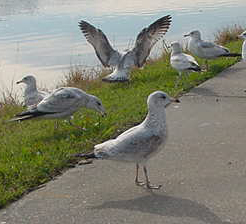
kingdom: Animalia
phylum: Chordata
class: Aves
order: Charadriiformes
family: Laridae
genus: Larus
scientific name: Larus delawarensis
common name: Ring-billed gull
